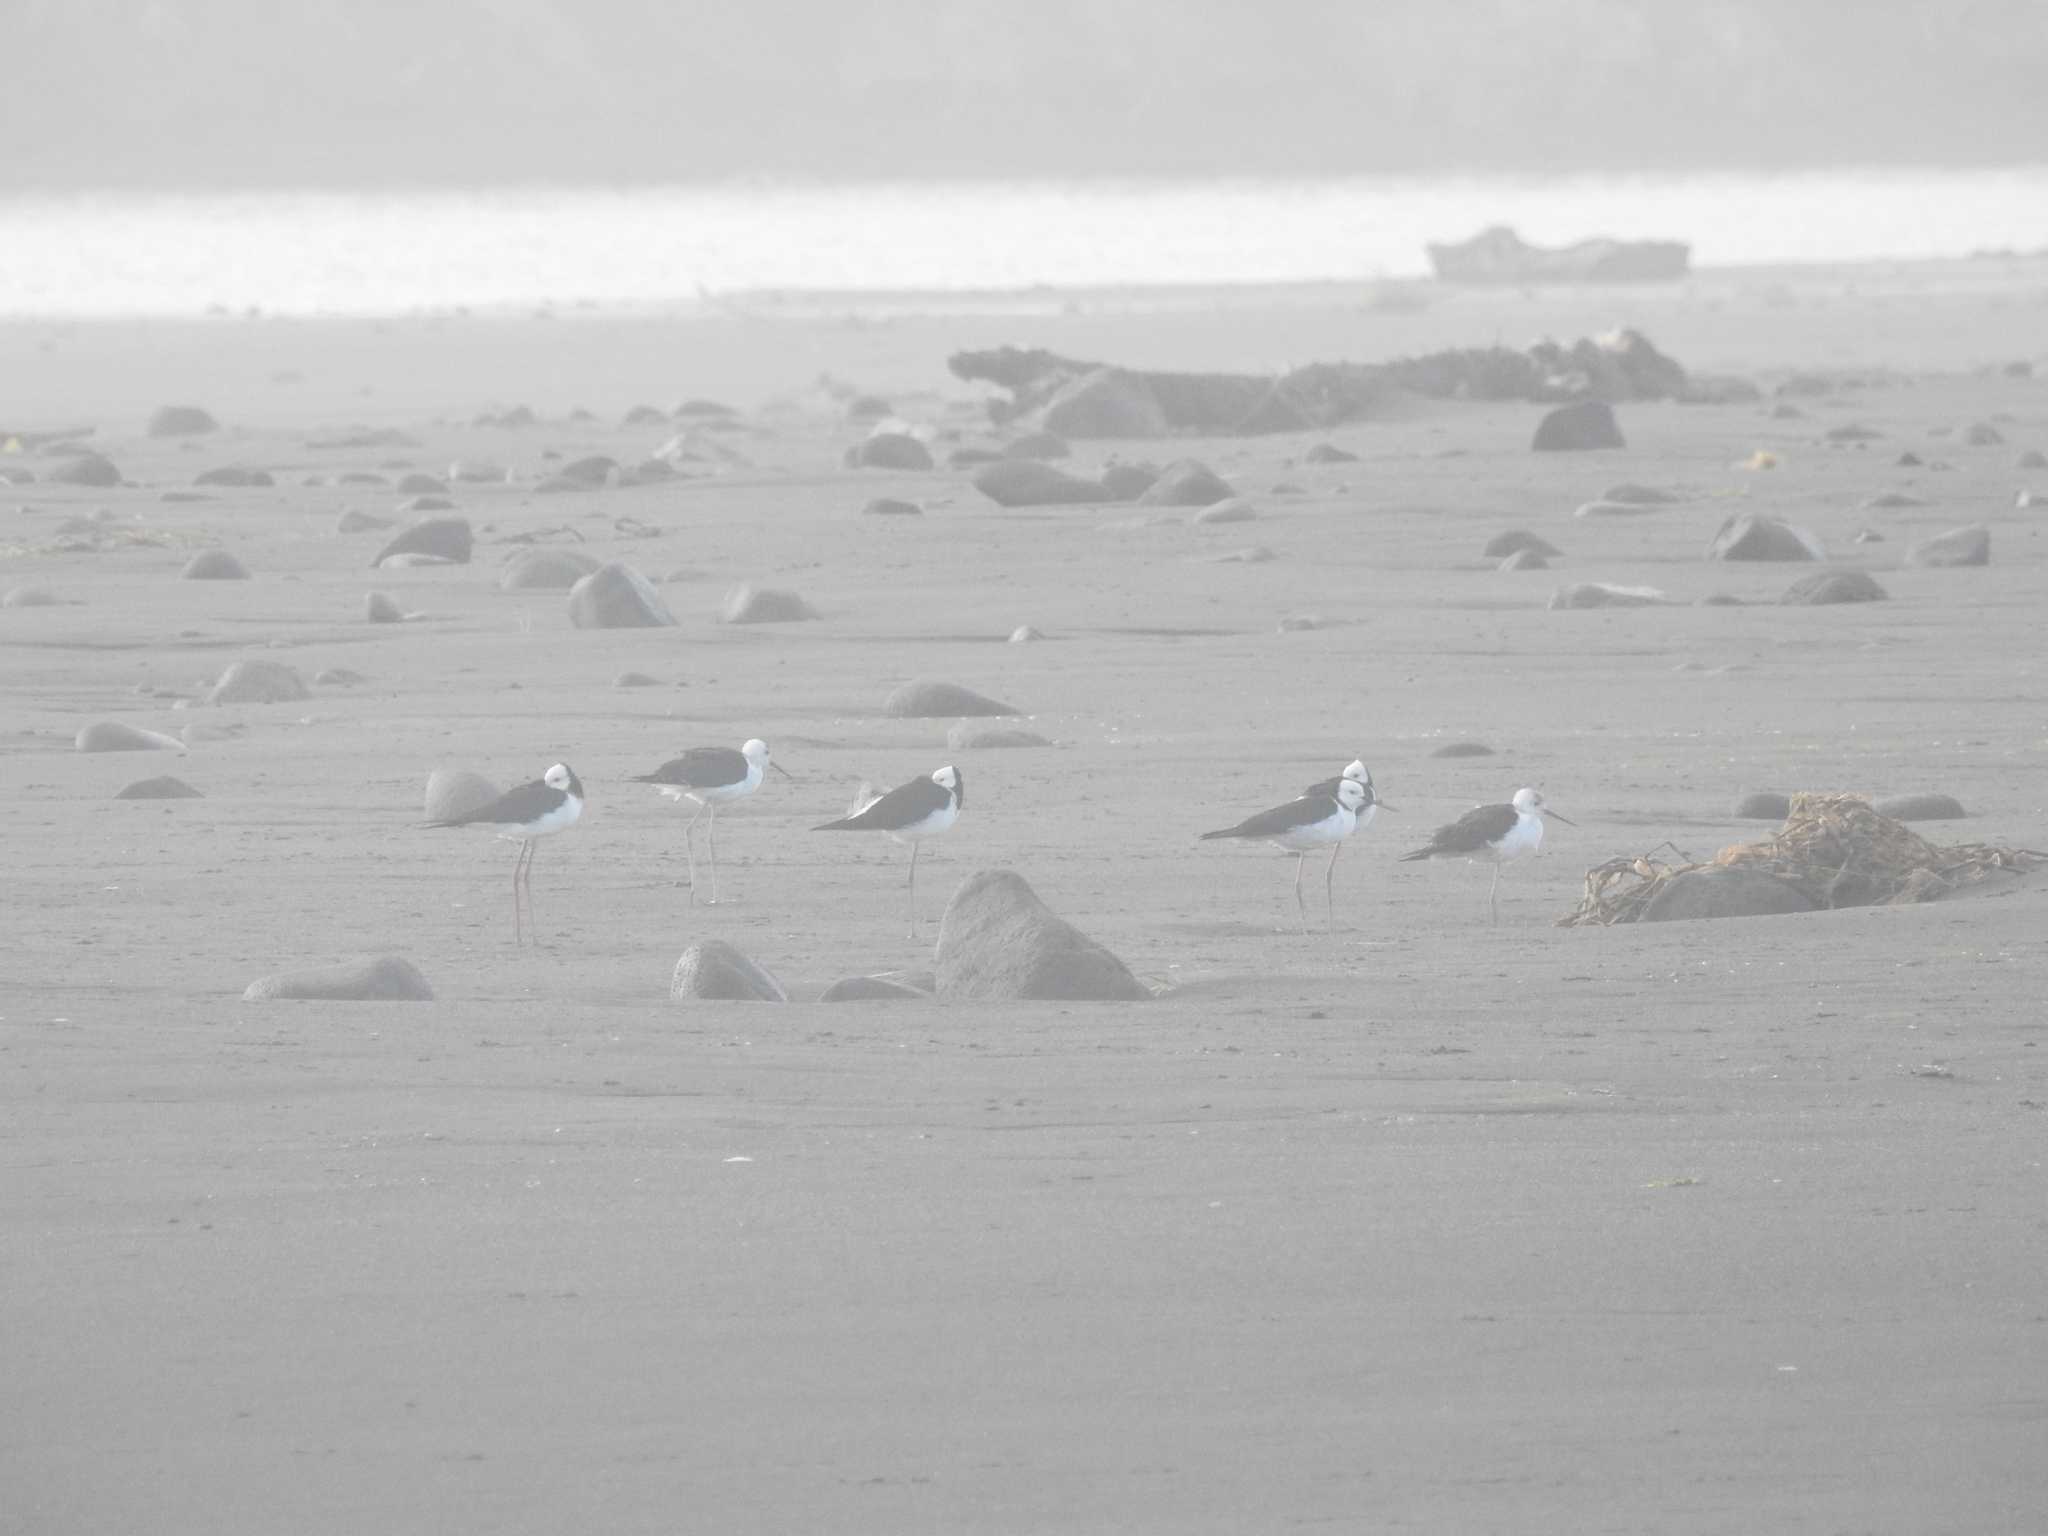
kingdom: Animalia
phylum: Chordata
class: Aves
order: Charadriiformes
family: Recurvirostridae
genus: Himantopus
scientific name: Himantopus leucocephalus
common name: White-headed stilt
